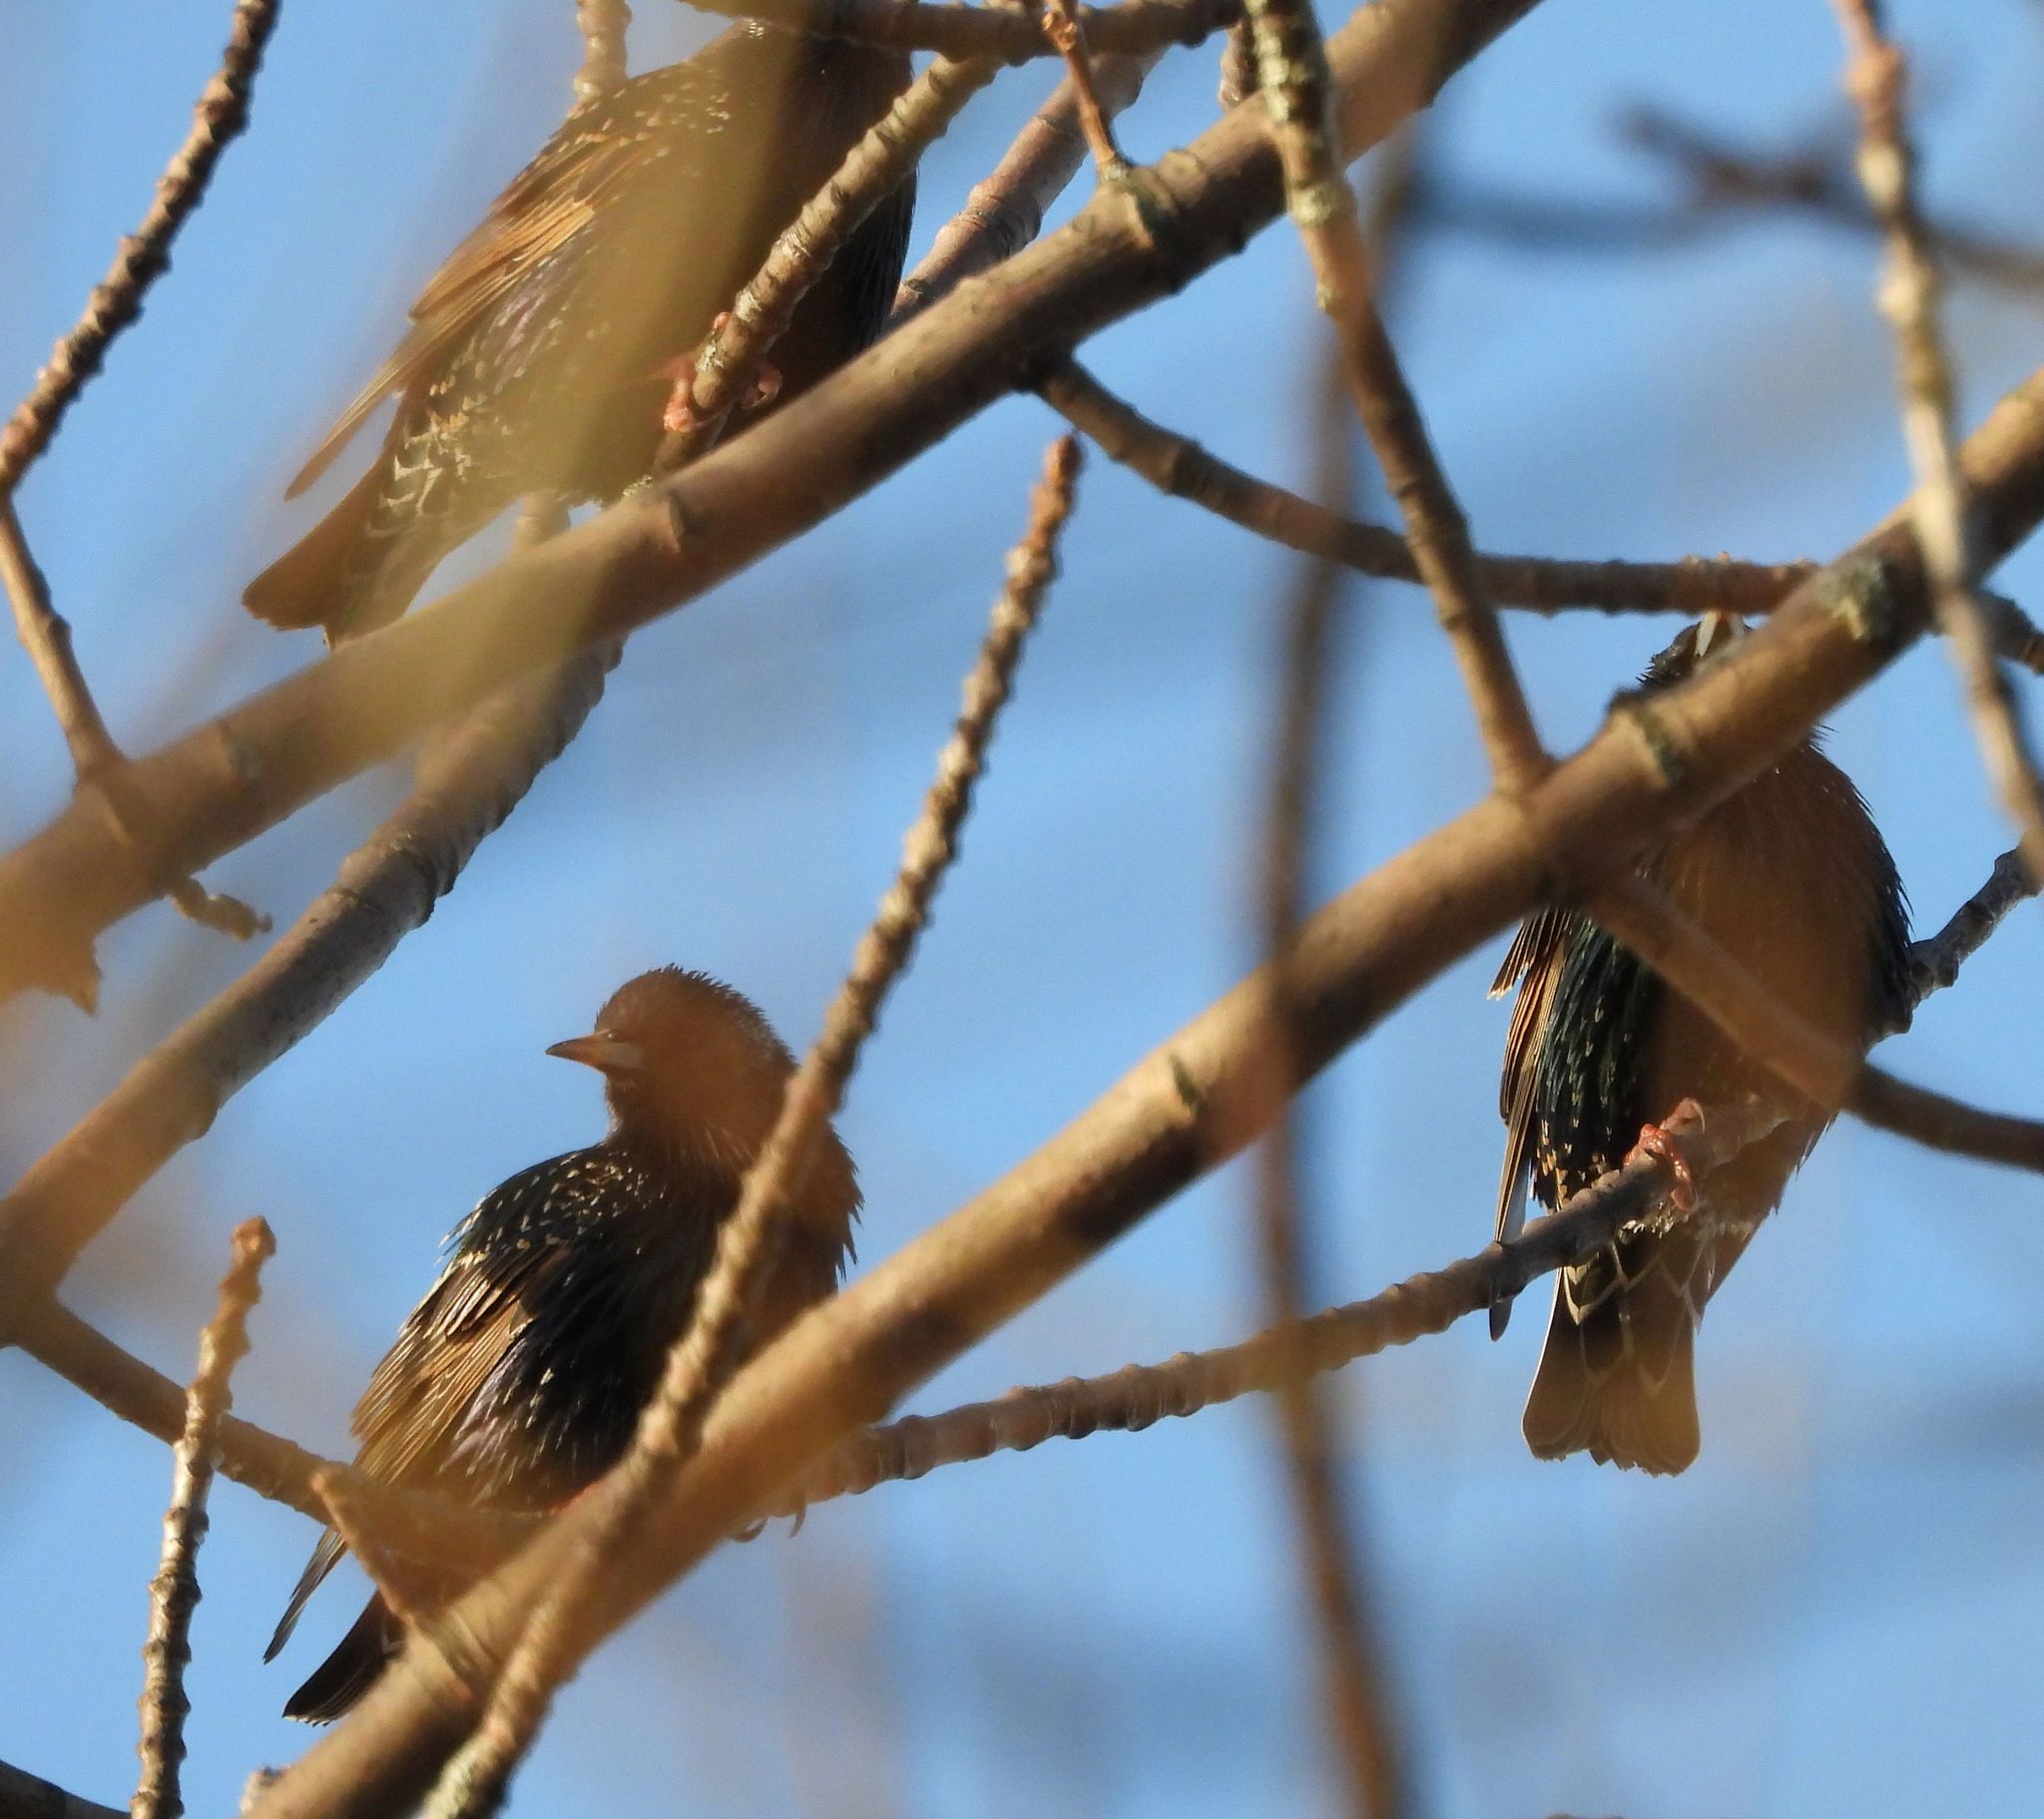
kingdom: Animalia
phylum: Chordata
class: Aves
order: Passeriformes
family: Sturnidae
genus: Sturnus
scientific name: Sturnus vulgaris
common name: Common starling
